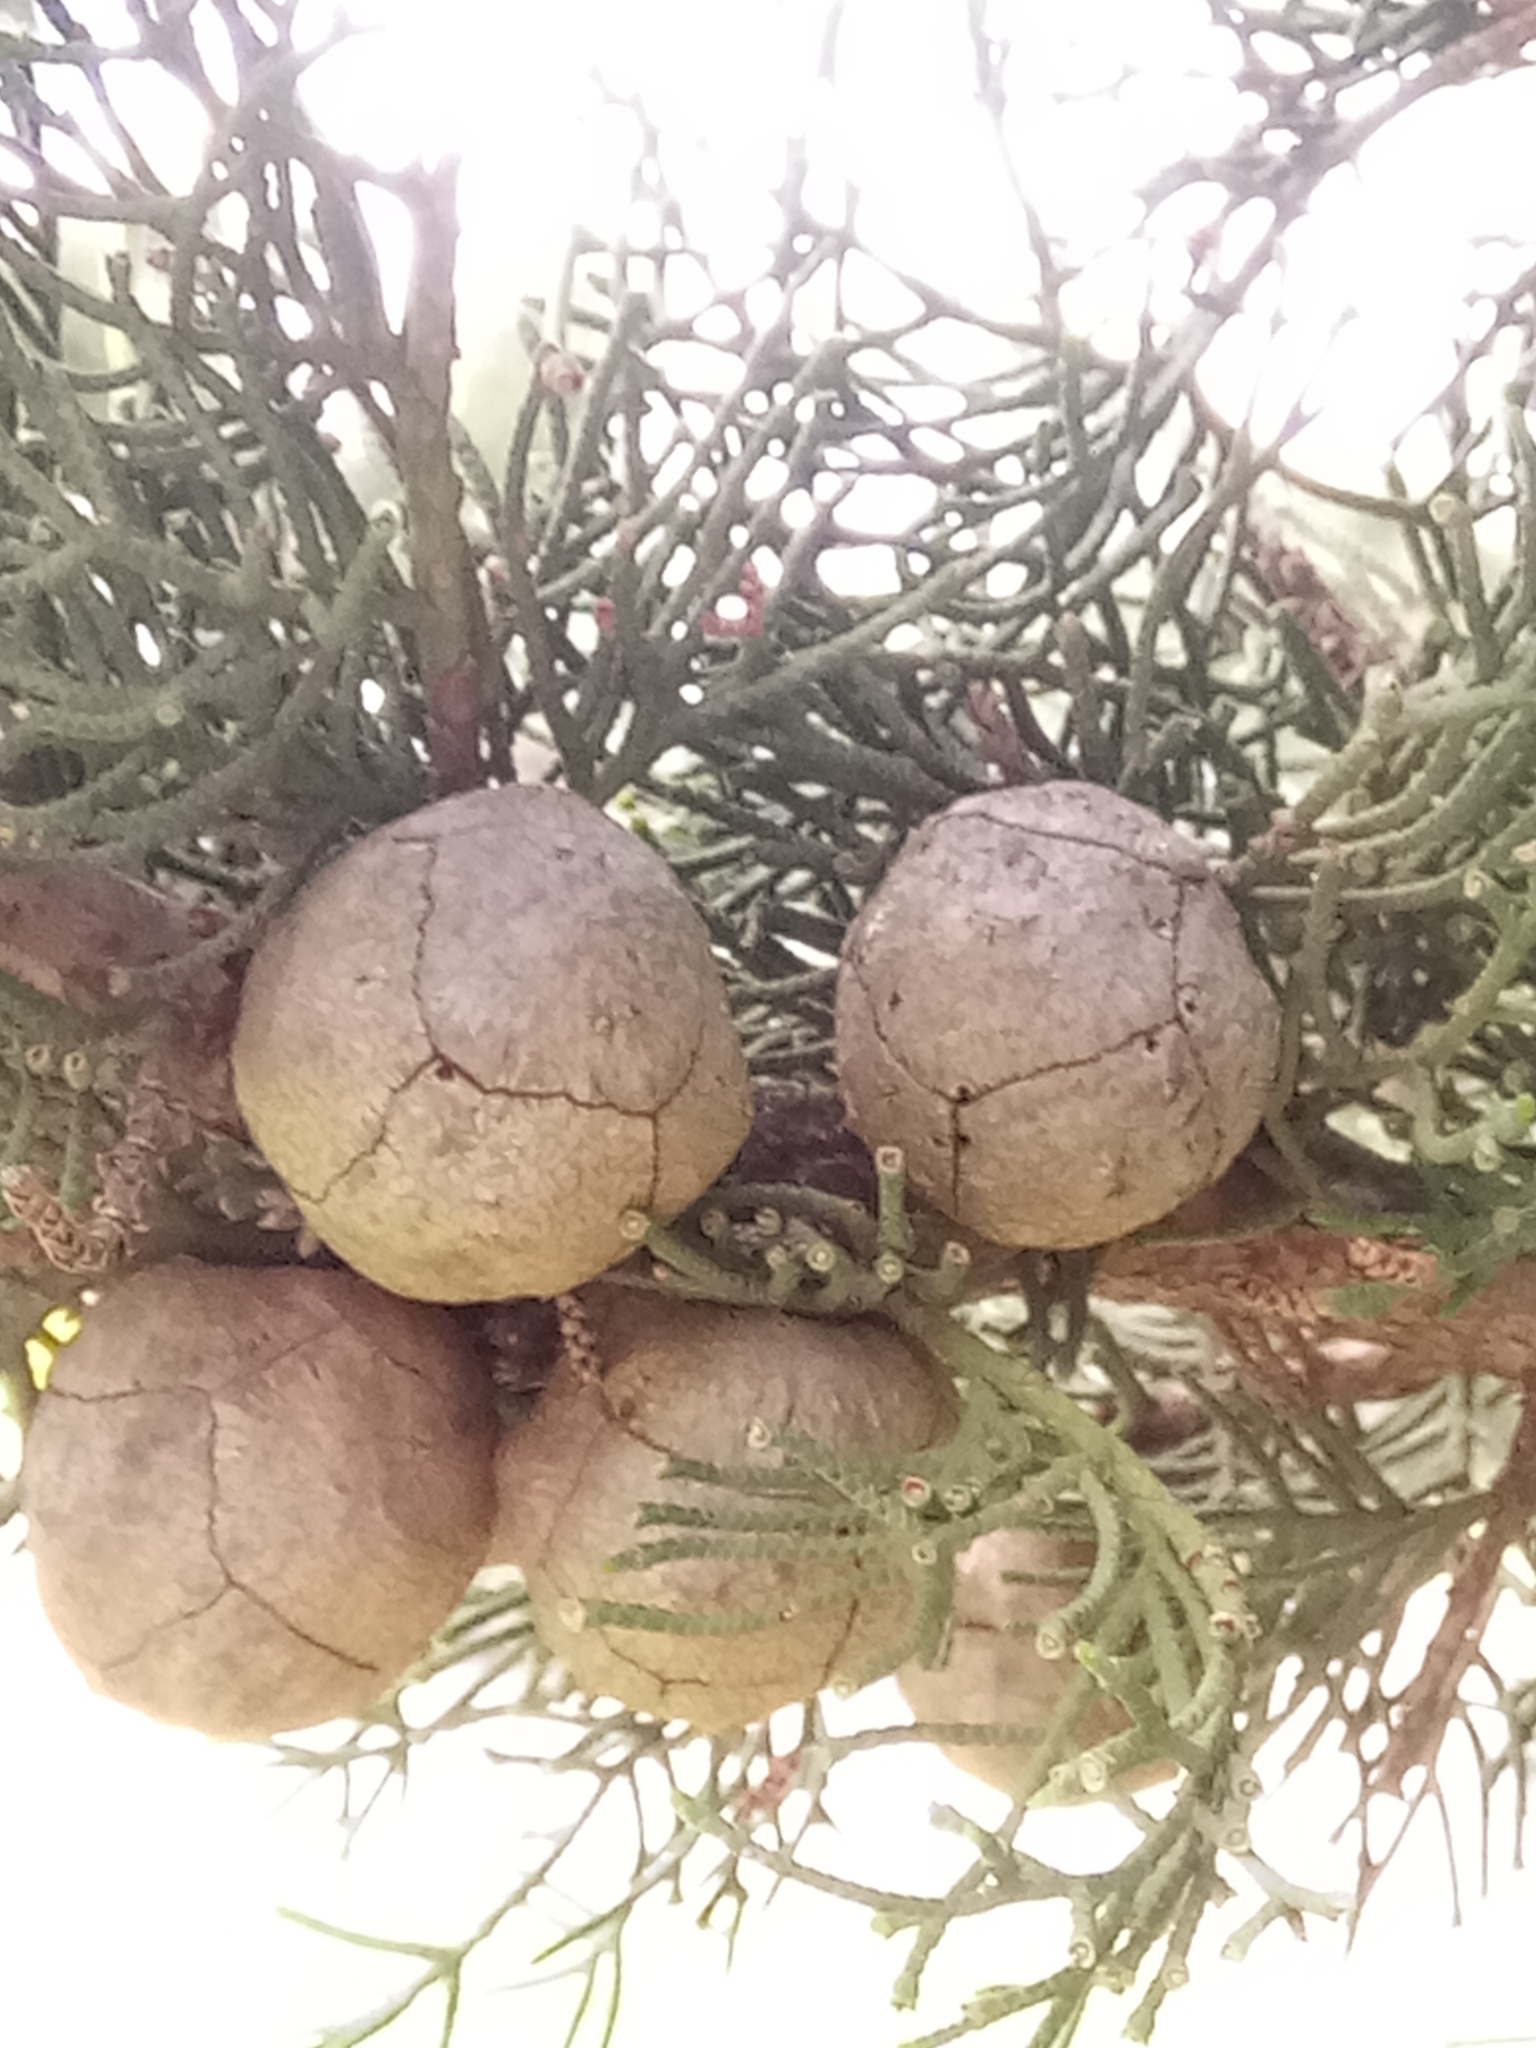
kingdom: Plantae
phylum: Tracheophyta
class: Pinopsida
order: Pinales
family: Cupressaceae
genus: Cupressus
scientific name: Cupressus sempervirens
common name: Italian cypress
